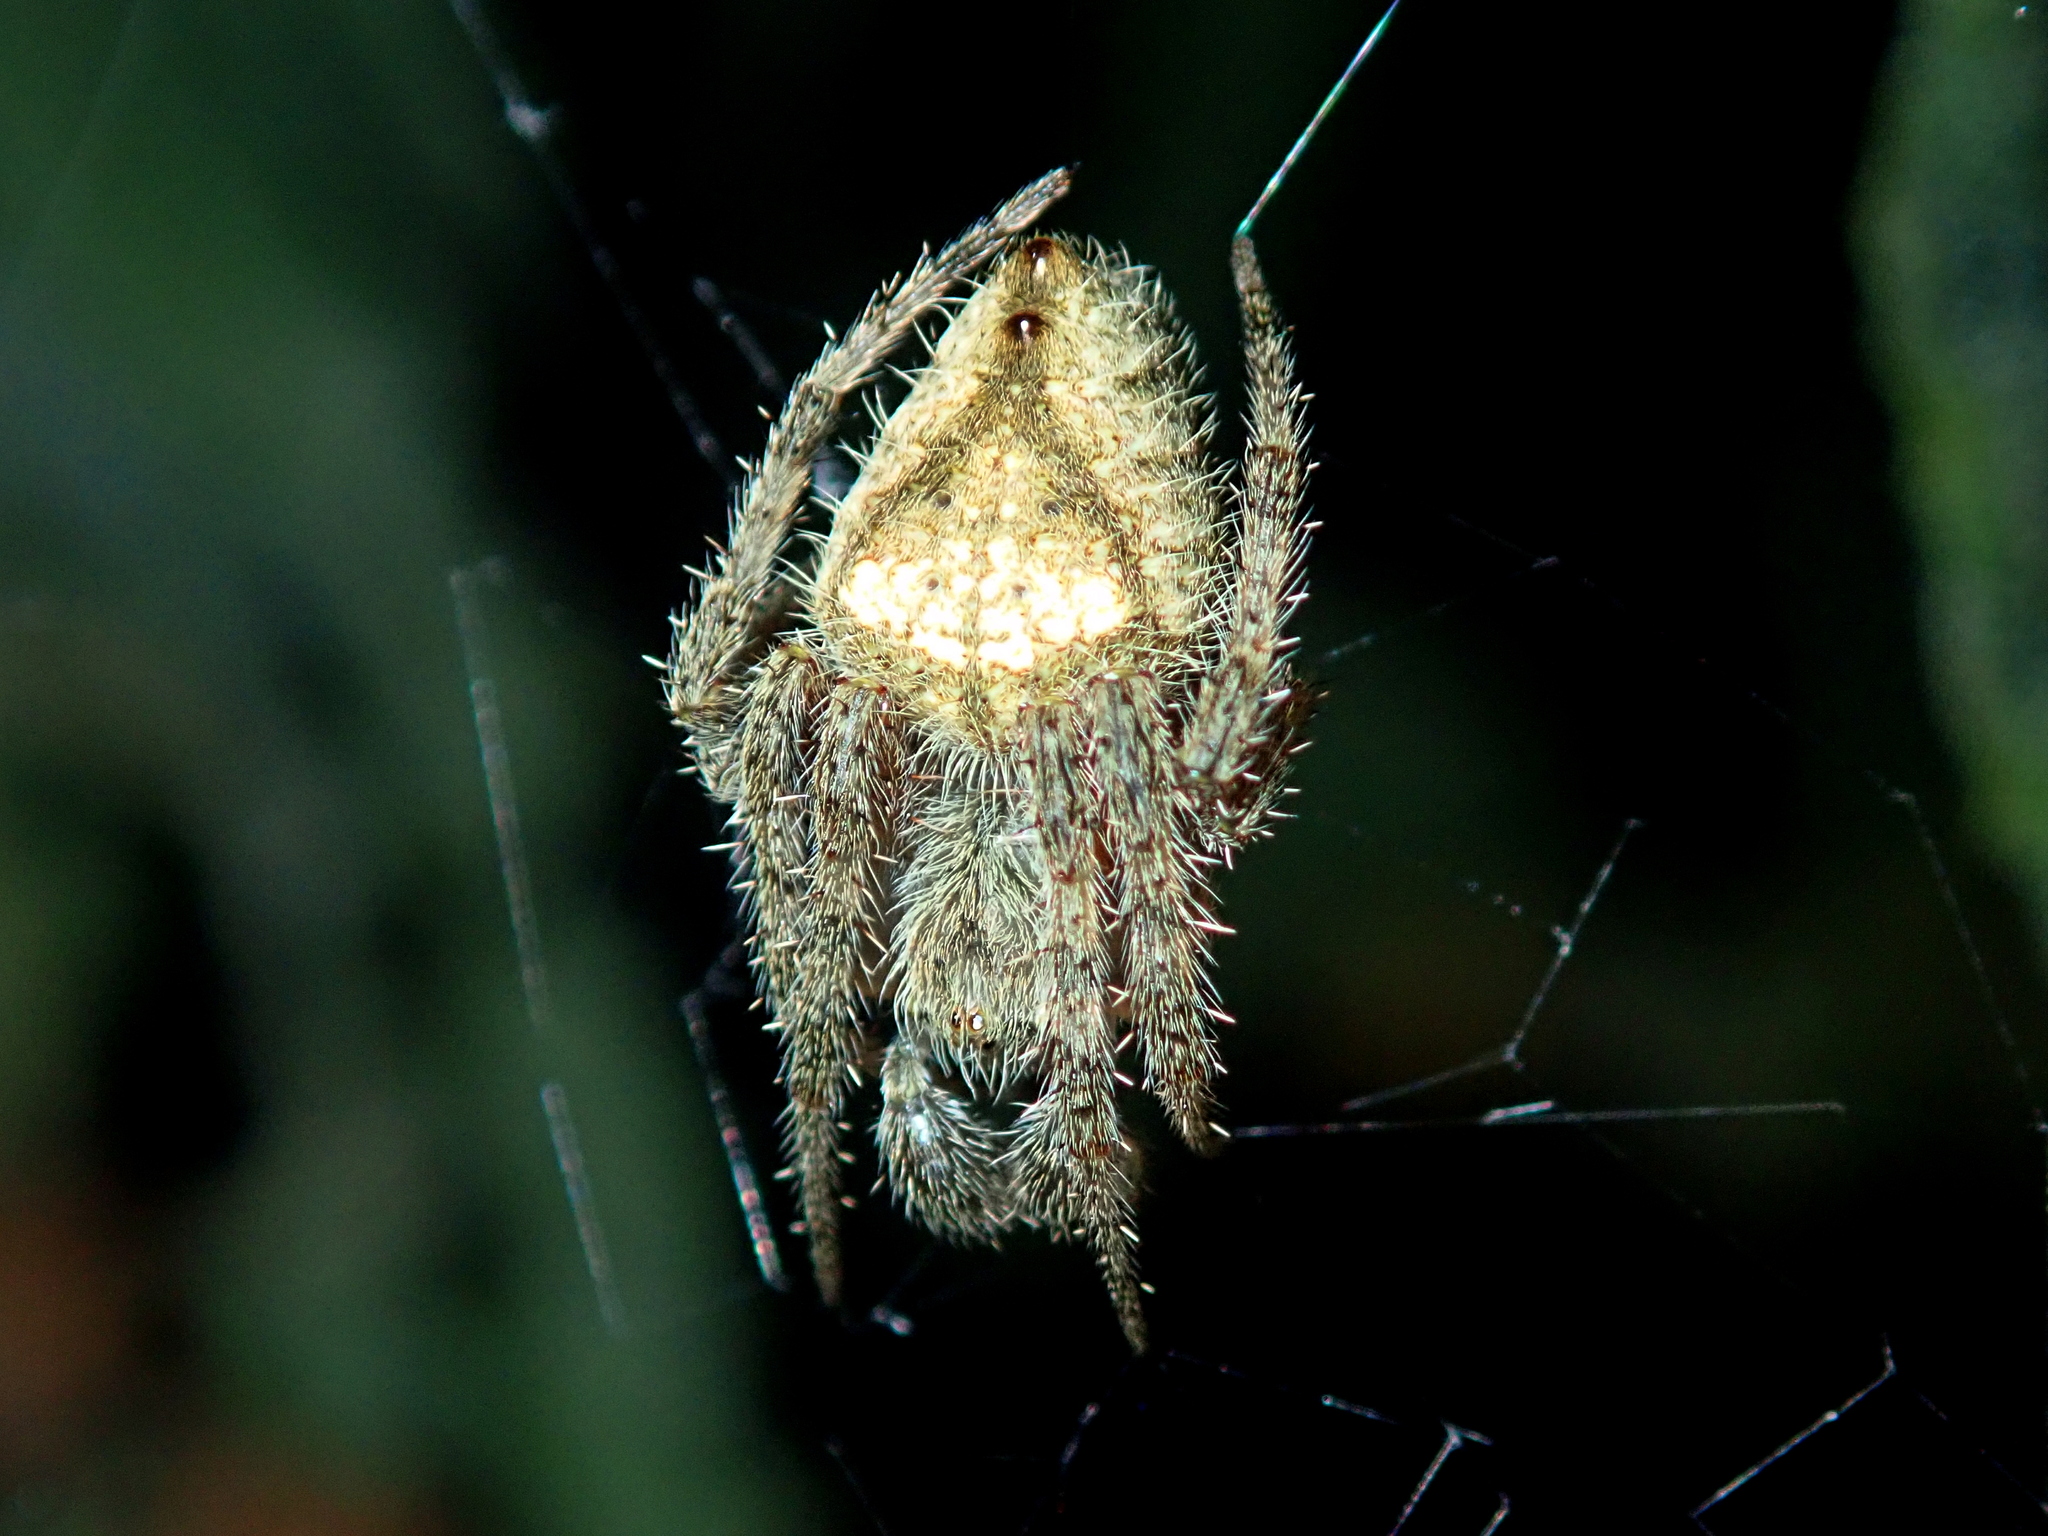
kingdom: Animalia
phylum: Arthropoda
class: Arachnida
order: Araneae
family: Araneidae
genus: Eriophora
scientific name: Eriophora edax
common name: Orb weavers
